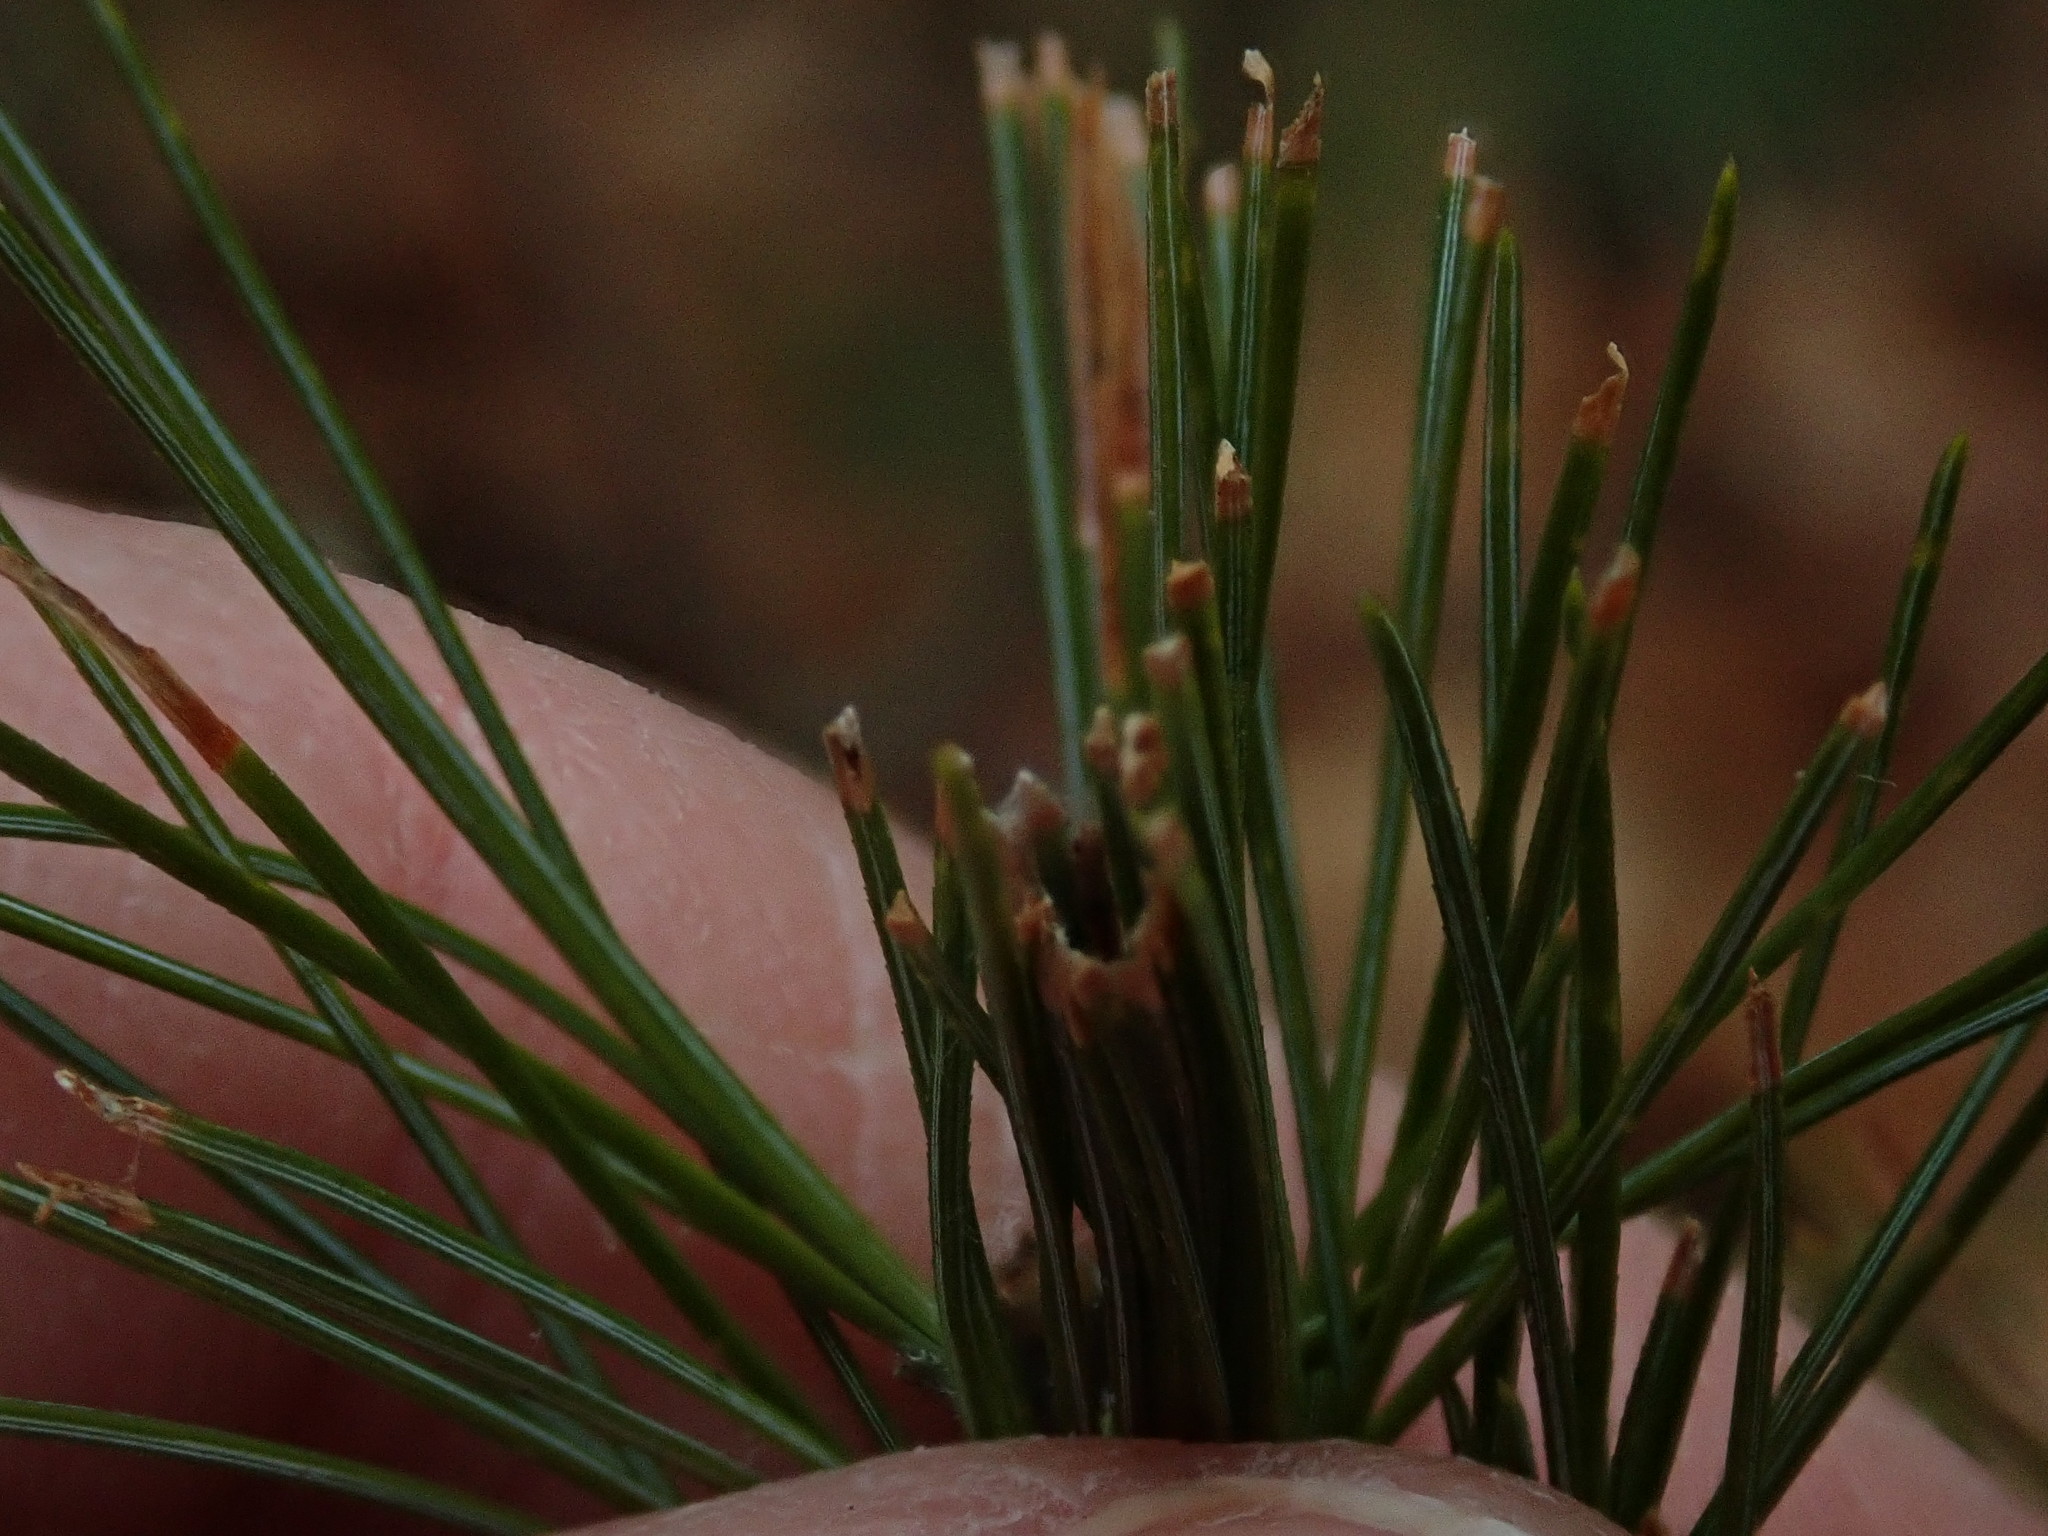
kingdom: Animalia
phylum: Arthropoda
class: Insecta
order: Lepidoptera
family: Tortricidae
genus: Argyrotaenia
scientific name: Argyrotaenia pinatubana
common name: Pine tube moth
